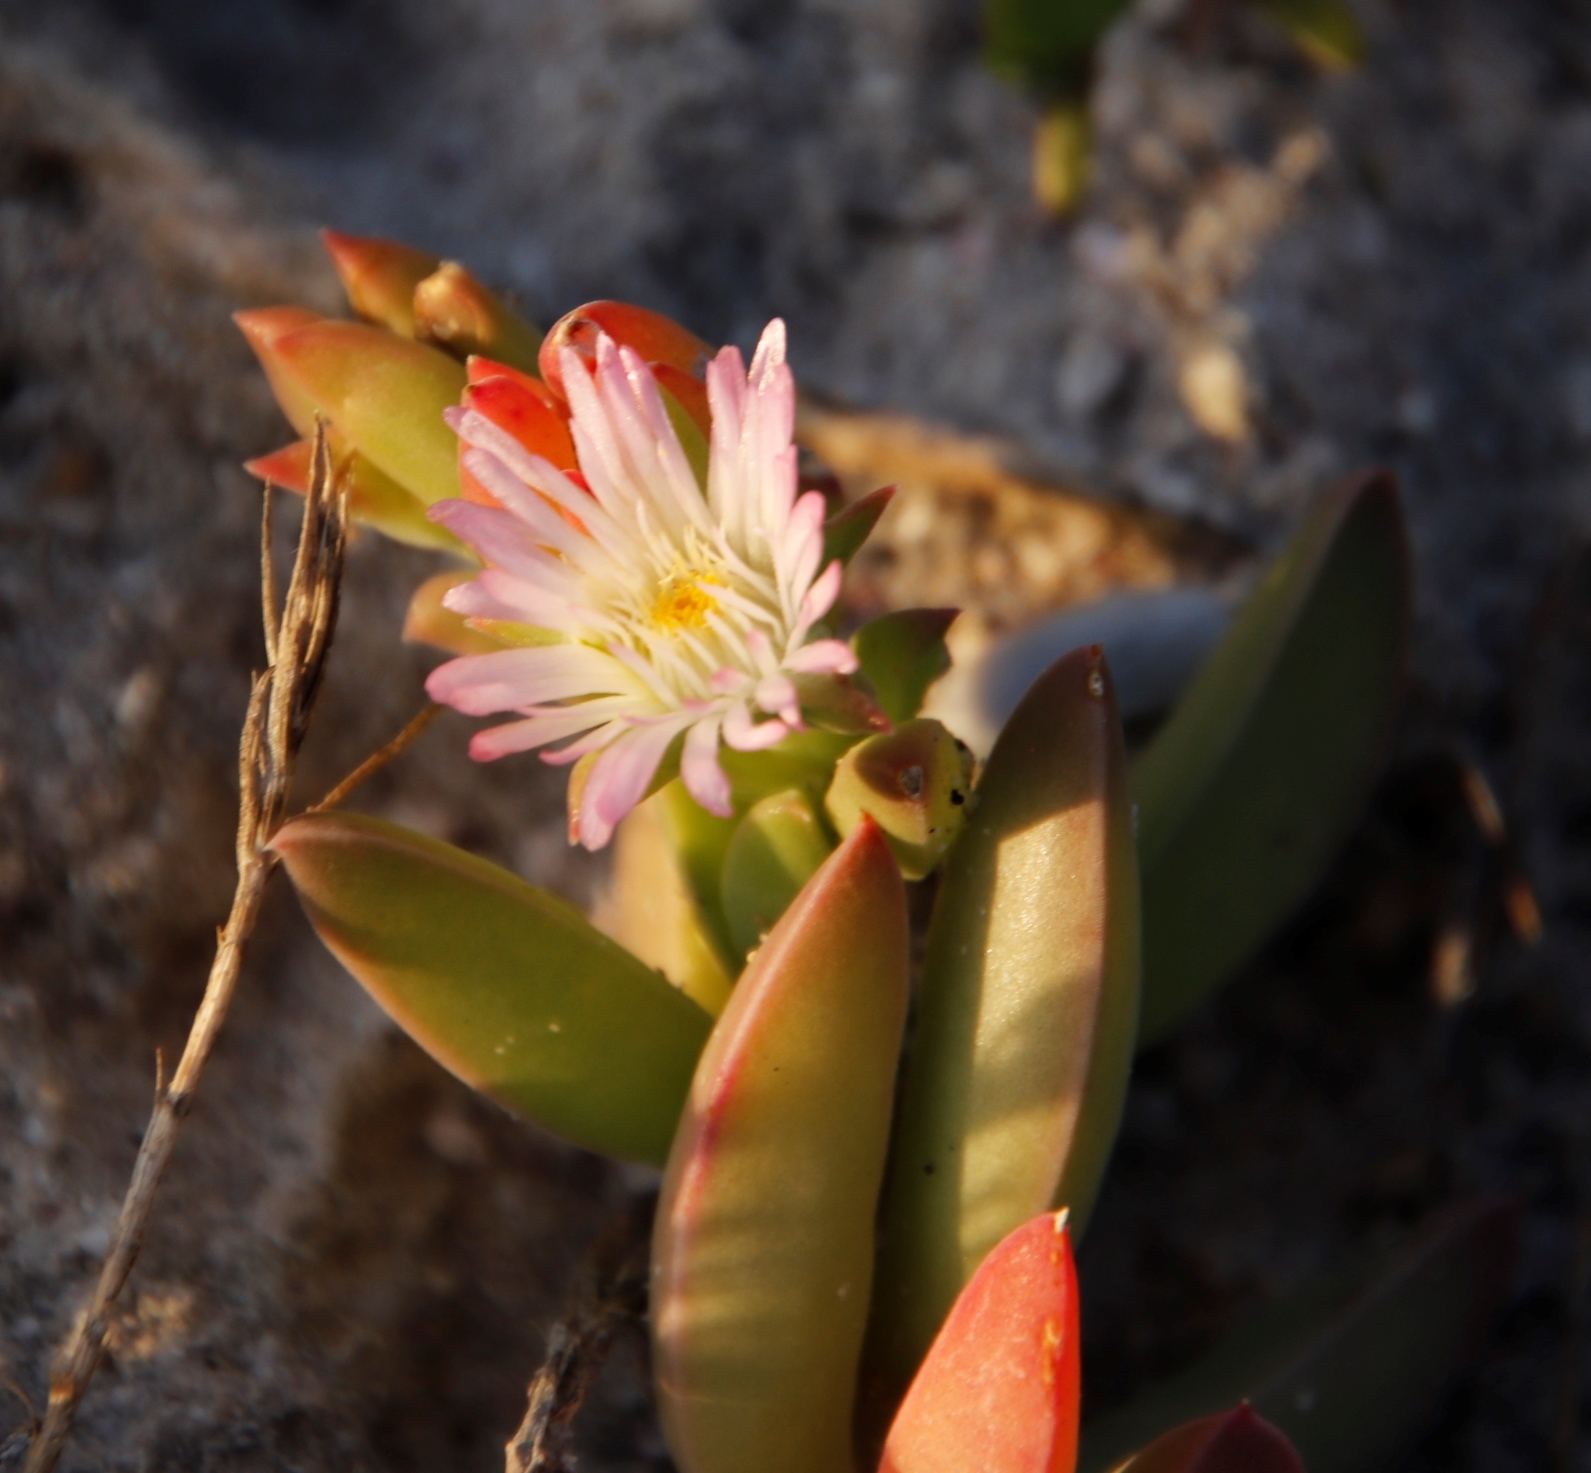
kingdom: Plantae
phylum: Tracheophyta
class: Magnoliopsida
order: Caryophyllales
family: Aizoaceae
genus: Delosperma
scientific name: Delosperma guthriei
